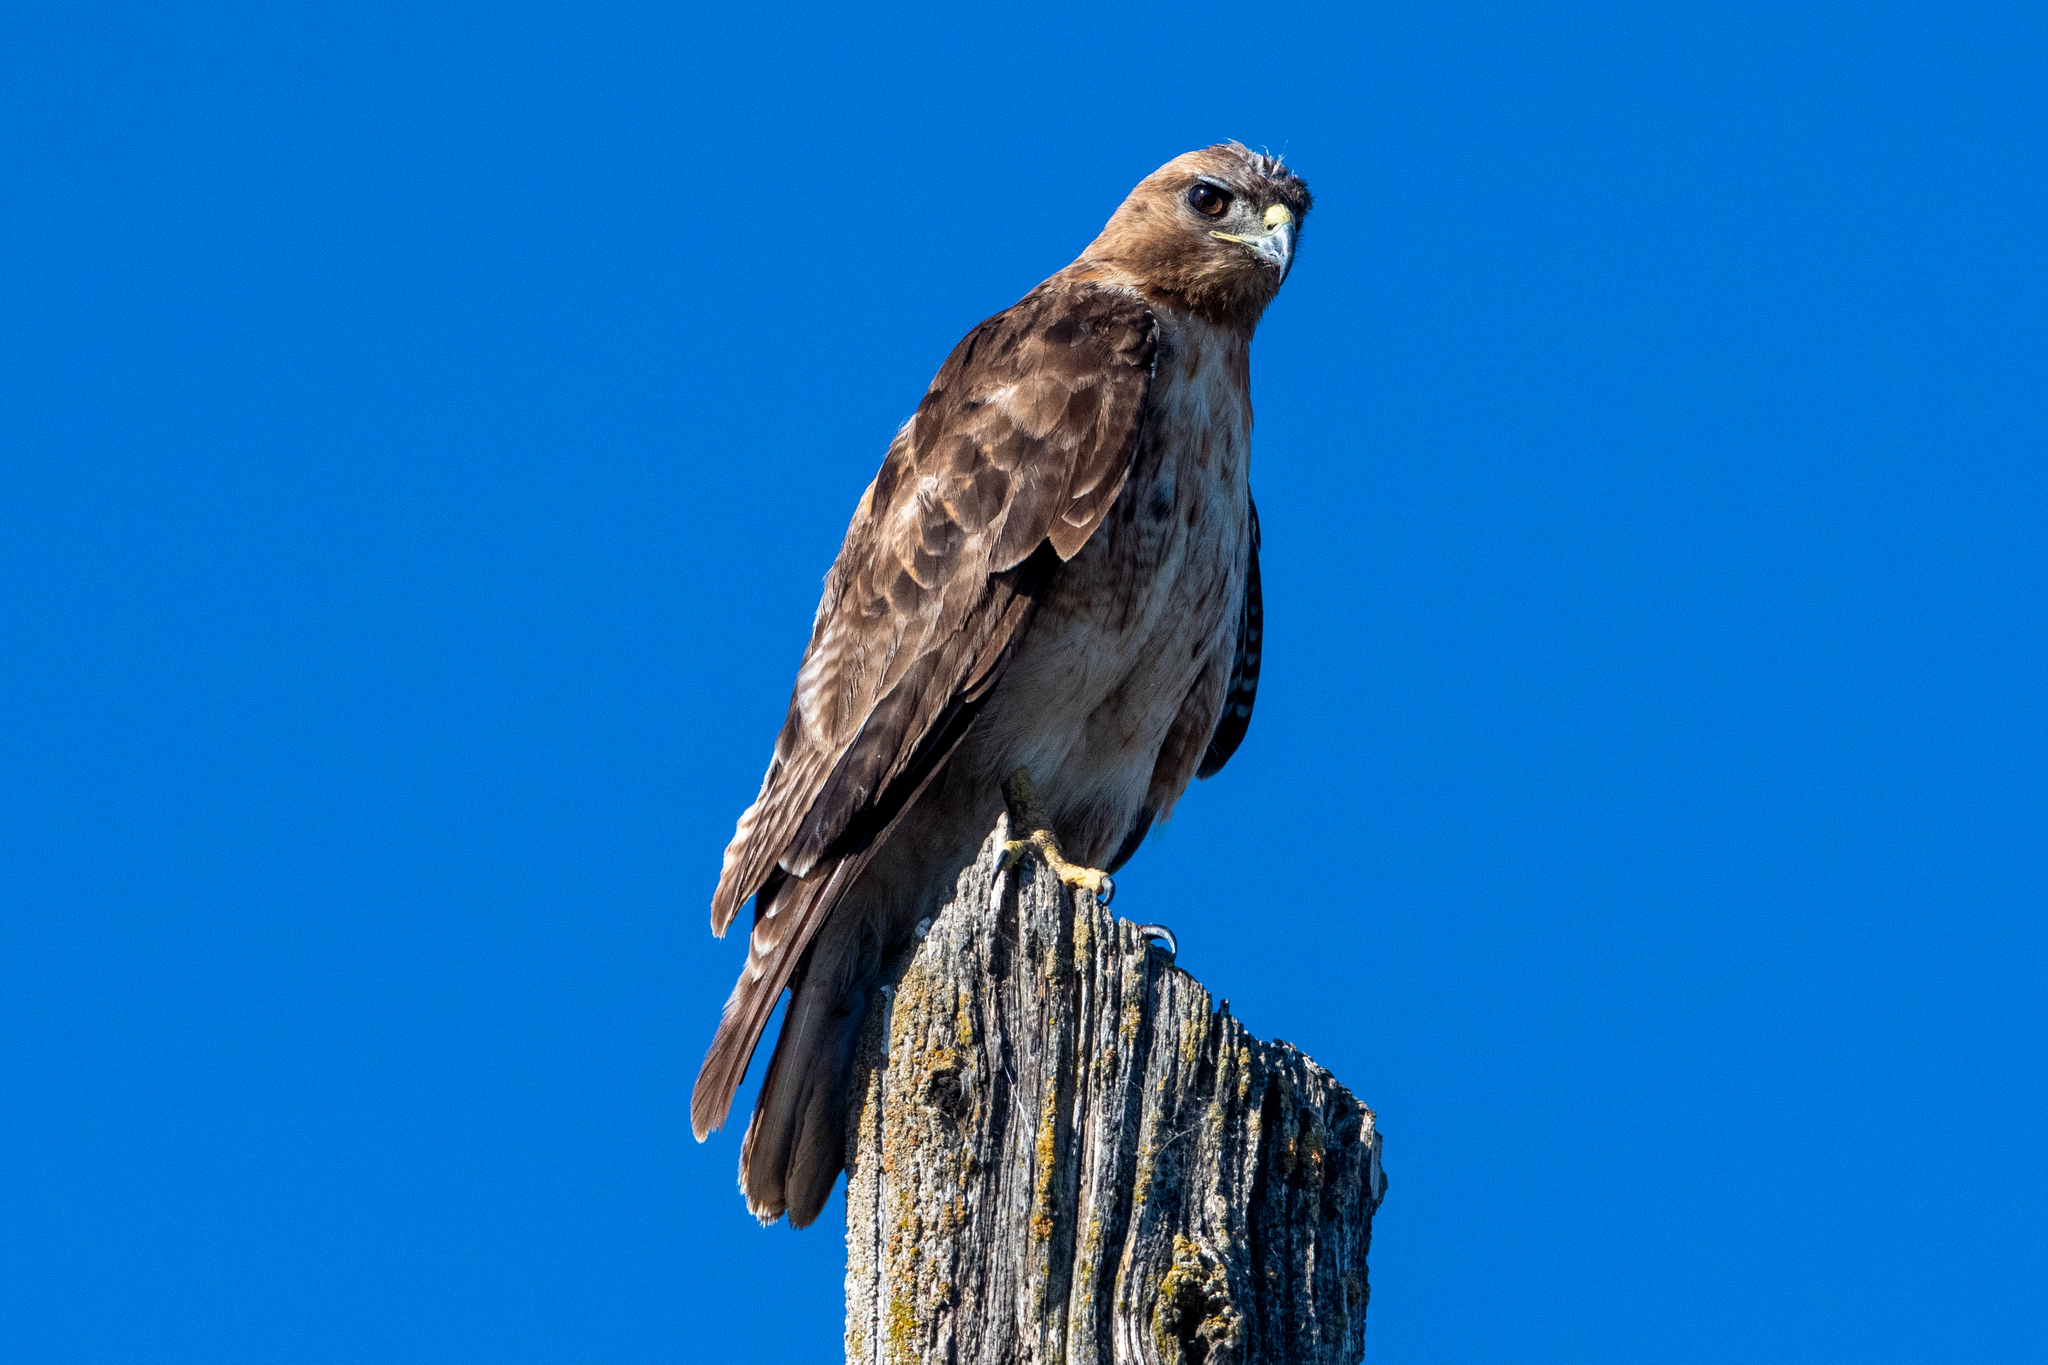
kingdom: Animalia
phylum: Chordata
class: Aves
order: Accipitriformes
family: Accipitridae
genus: Buteo
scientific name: Buteo jamaicensis
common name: Red-tailed hawk
